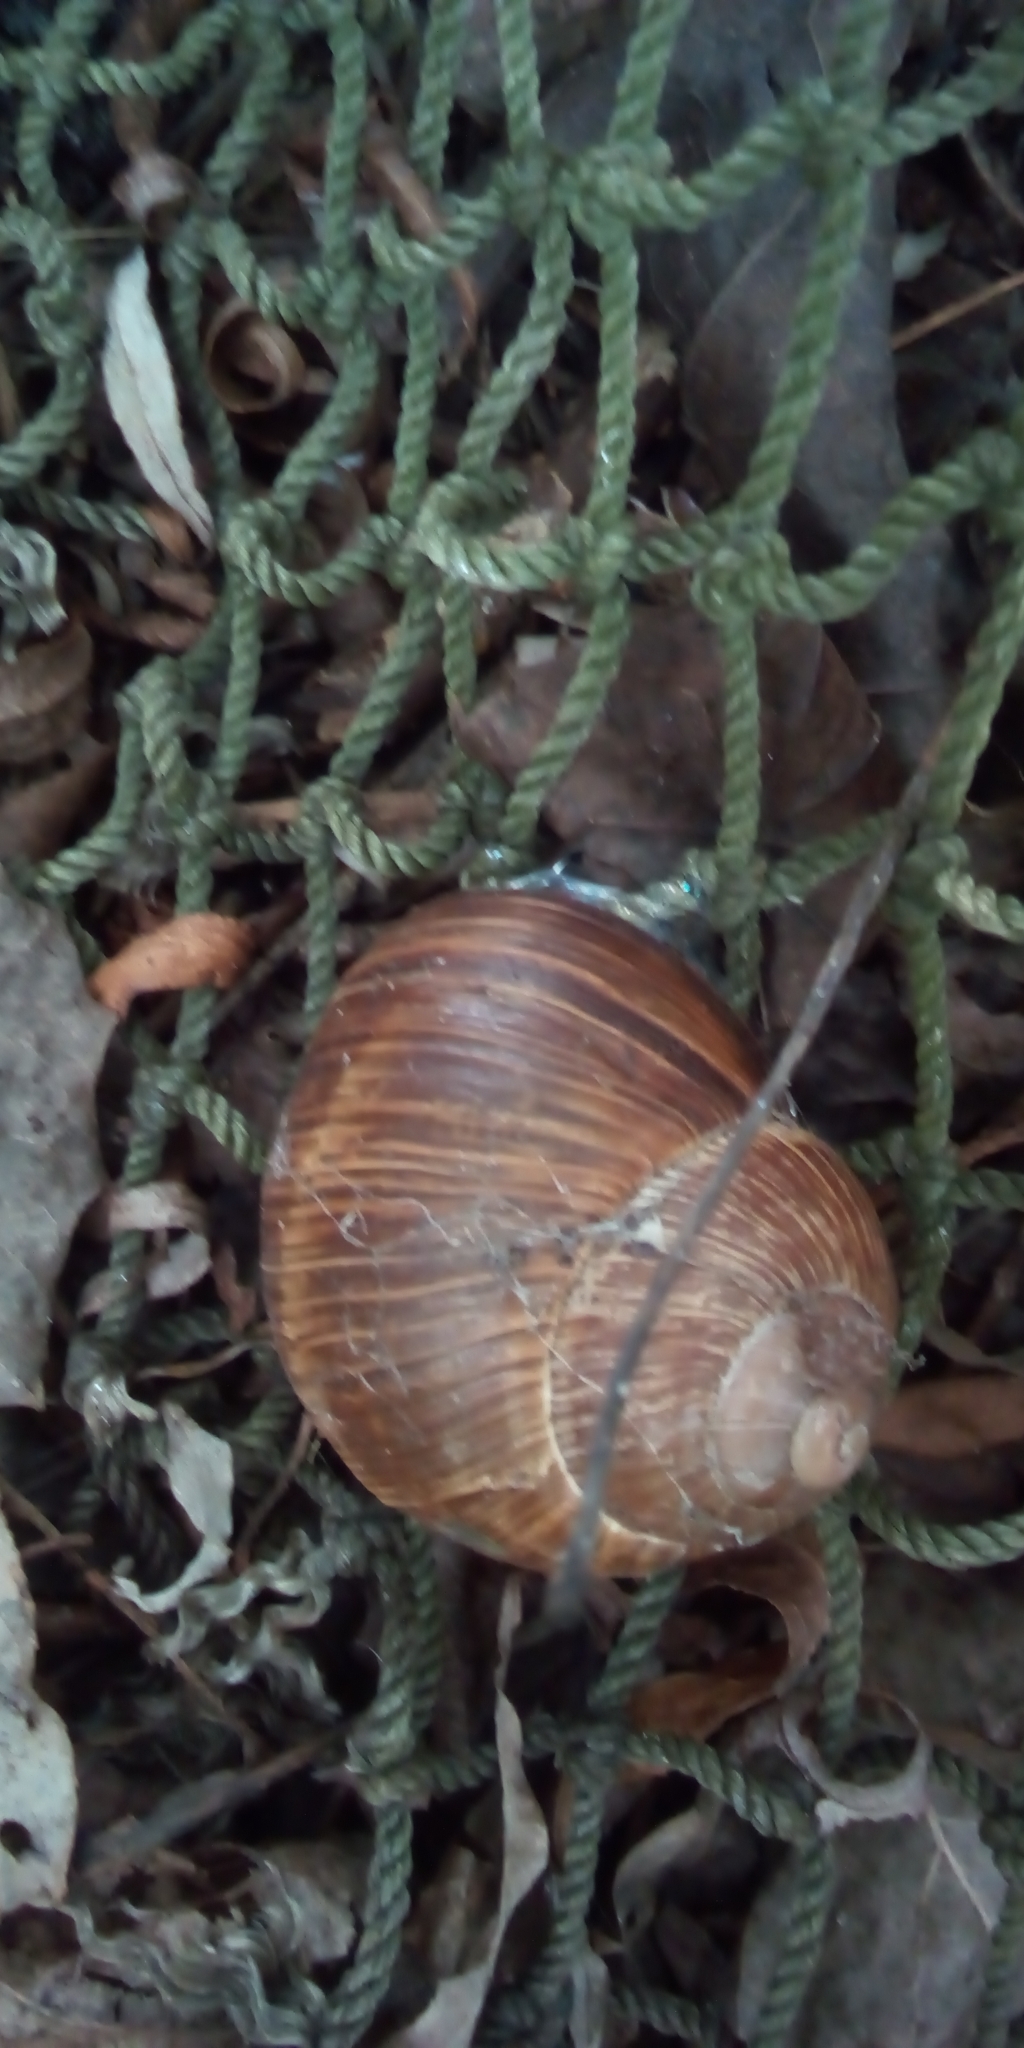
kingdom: Animalia
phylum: Mollusca
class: Gastropoda
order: Stylommatophora
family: Helicidae
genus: Helix
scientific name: Helix pomatia
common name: Roman snail
